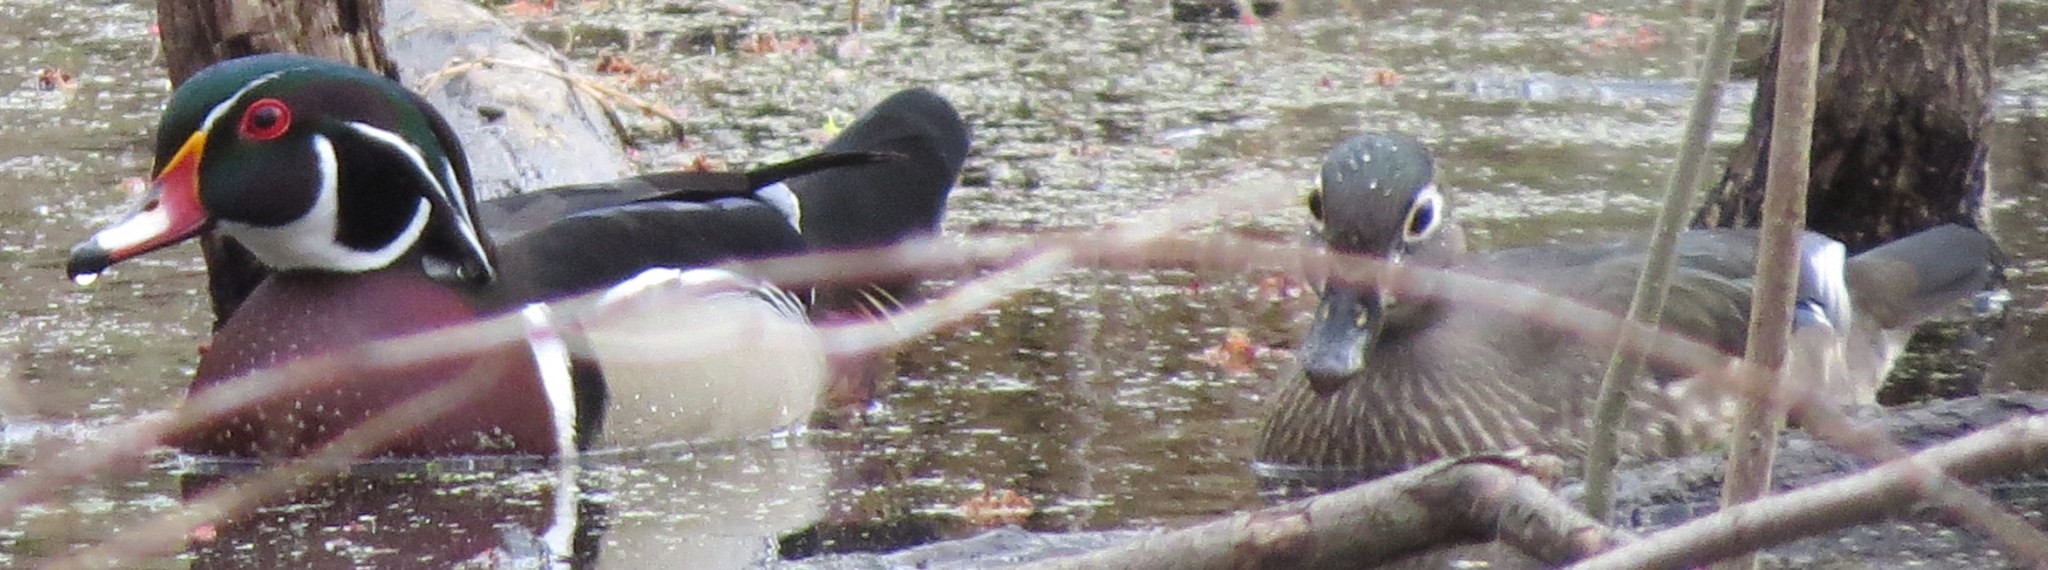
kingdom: Animalia
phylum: Chordata
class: Aves
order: Anseriformes
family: Anatidae
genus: Aix
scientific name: Aix sponsa
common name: Wood duck
